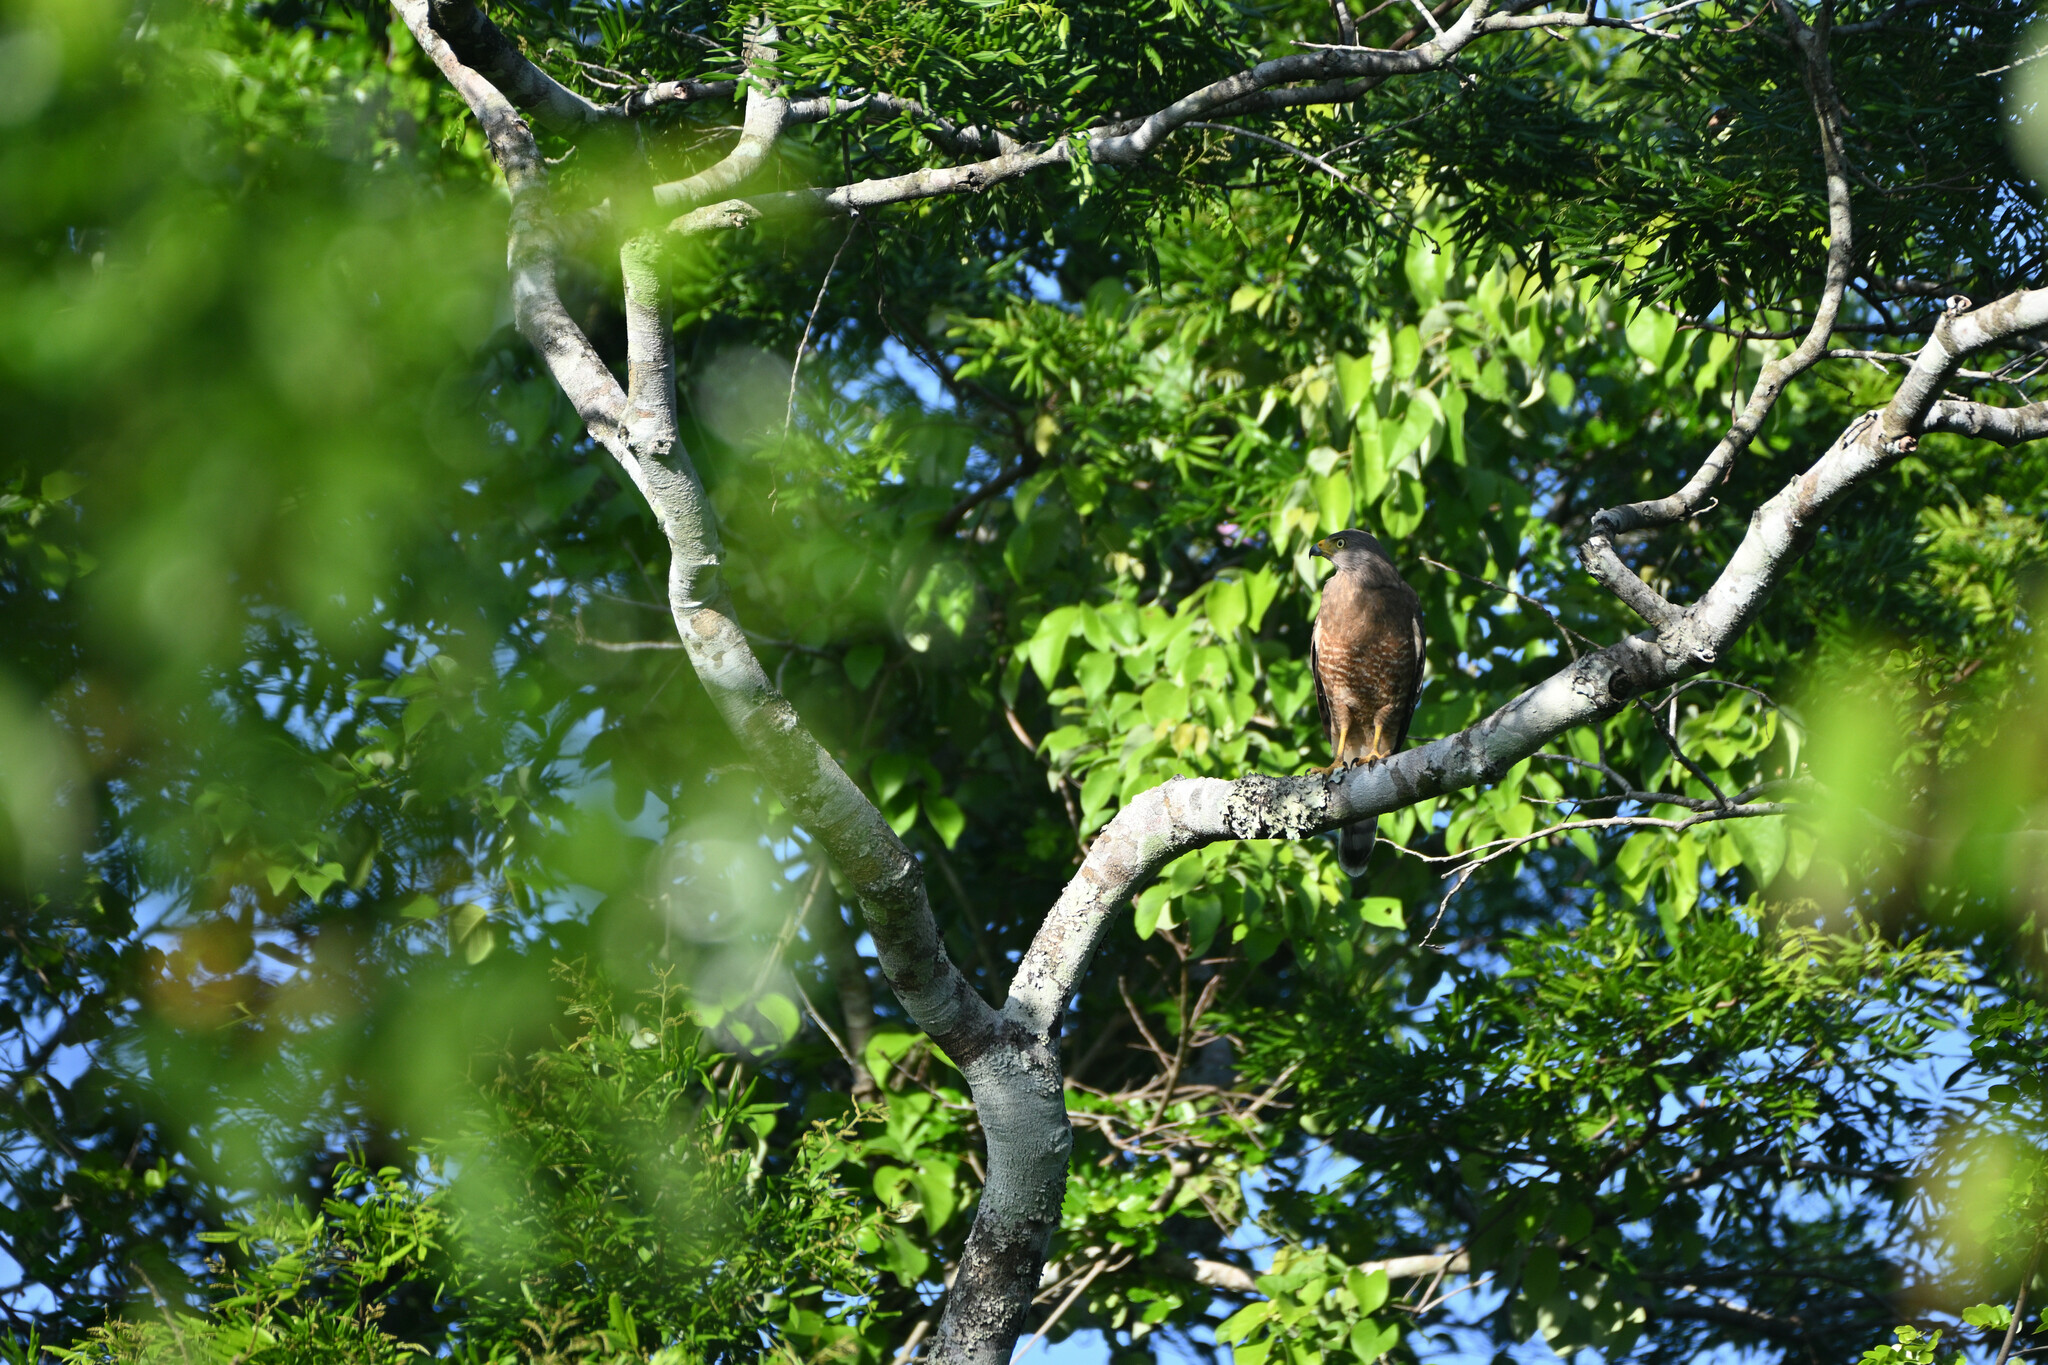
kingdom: Animalia
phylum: Chordata
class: Aves
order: Accipitriformes
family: Accipitridae
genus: Rupornis
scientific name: Rupornis magnirostris
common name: Roadside hawk
